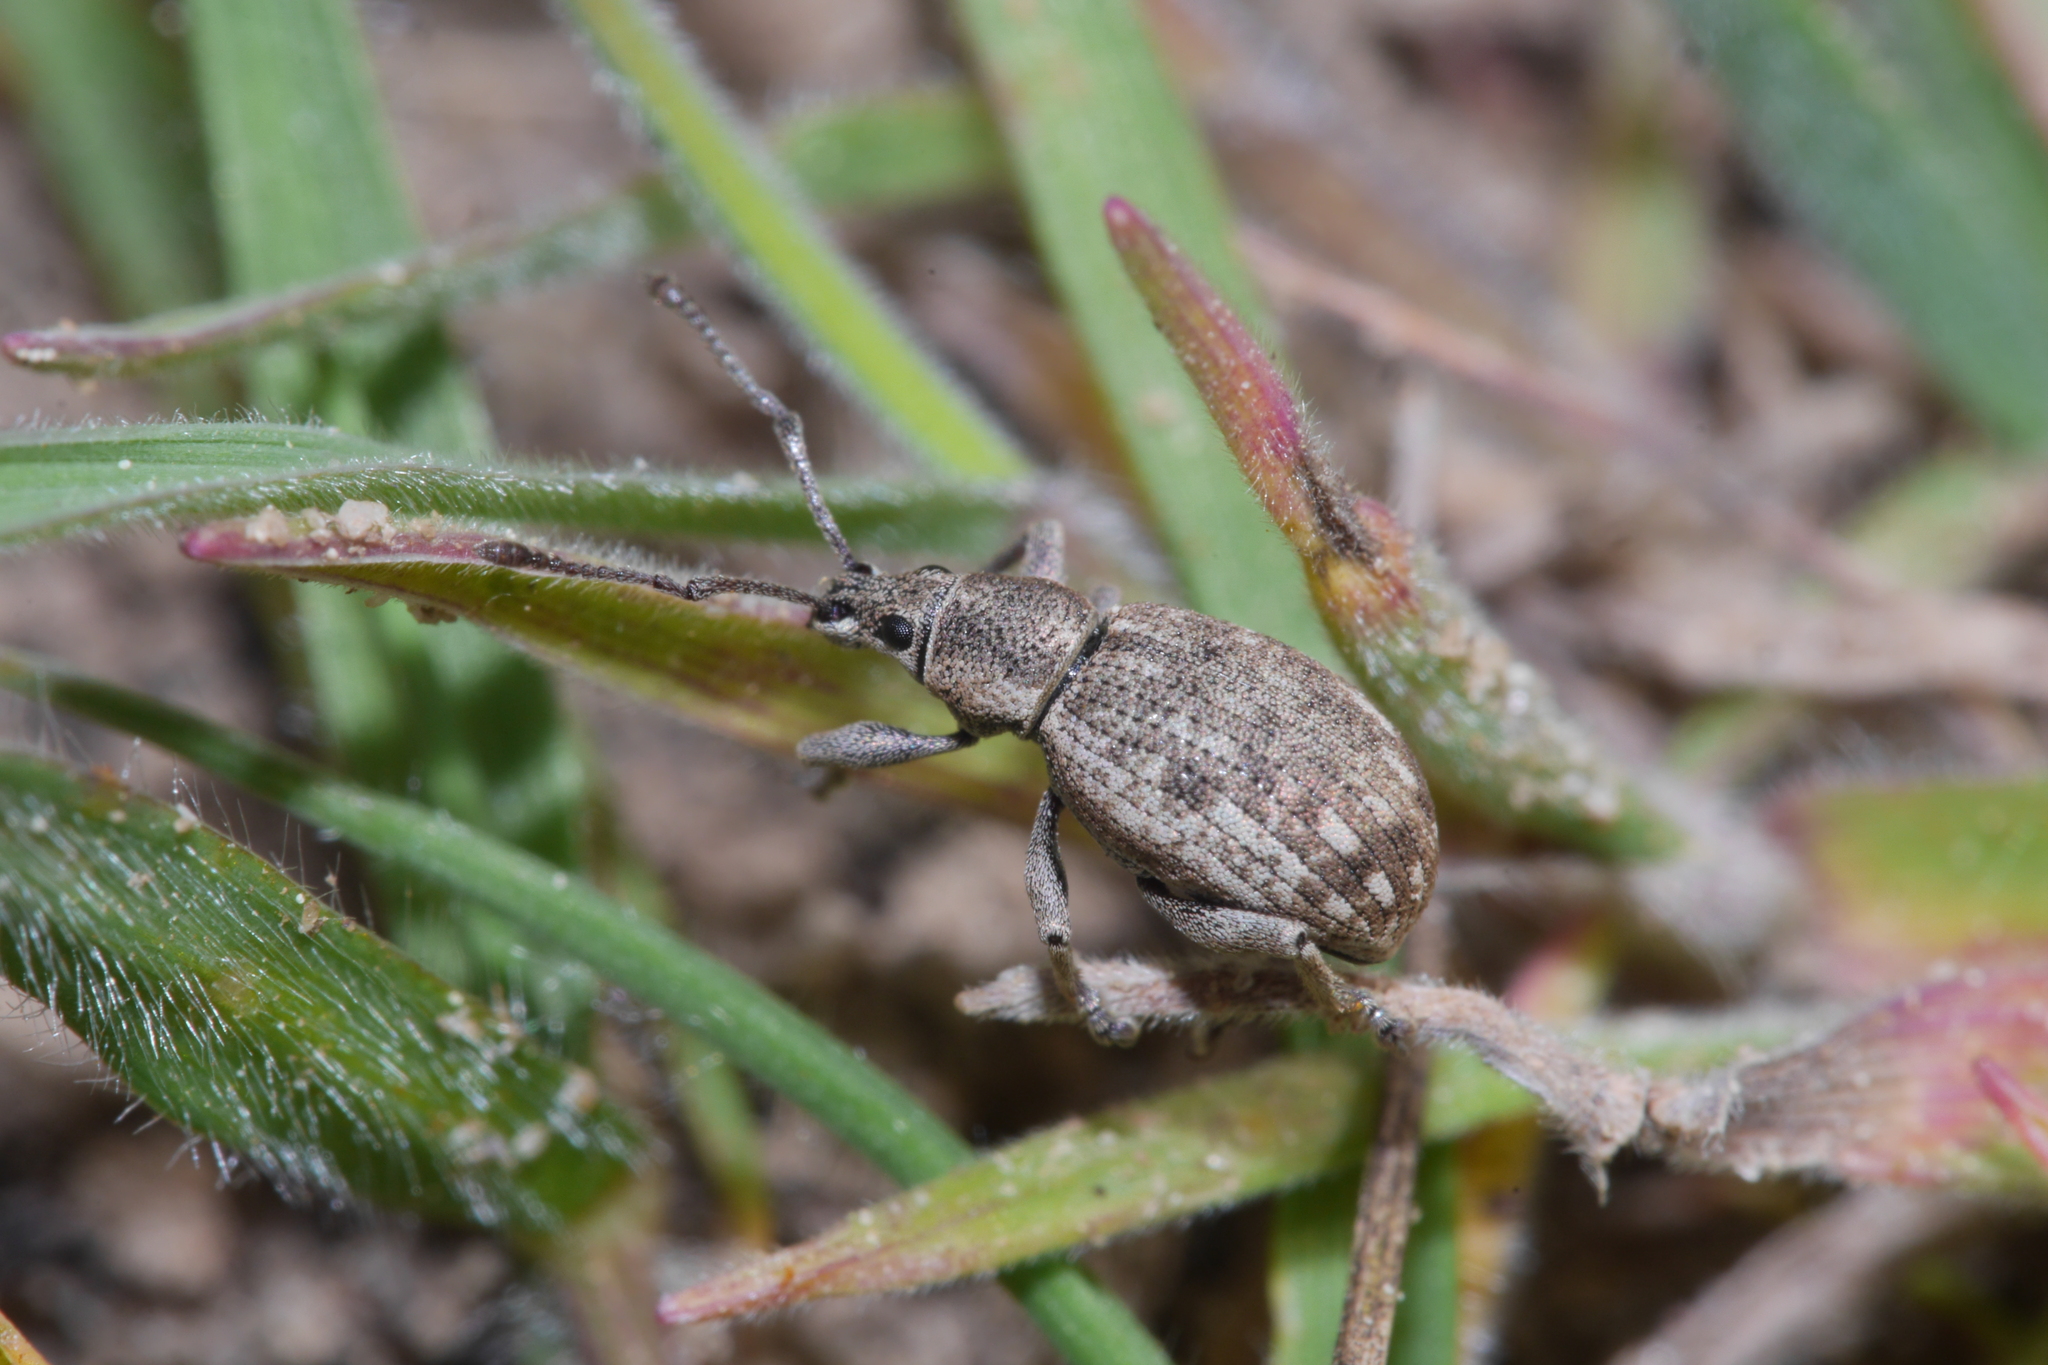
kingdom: Animalia
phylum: Arthropoda
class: Insecta
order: Coleoptera
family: Curculionidae
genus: Peritelus
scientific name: Peritelus sphaeroides
